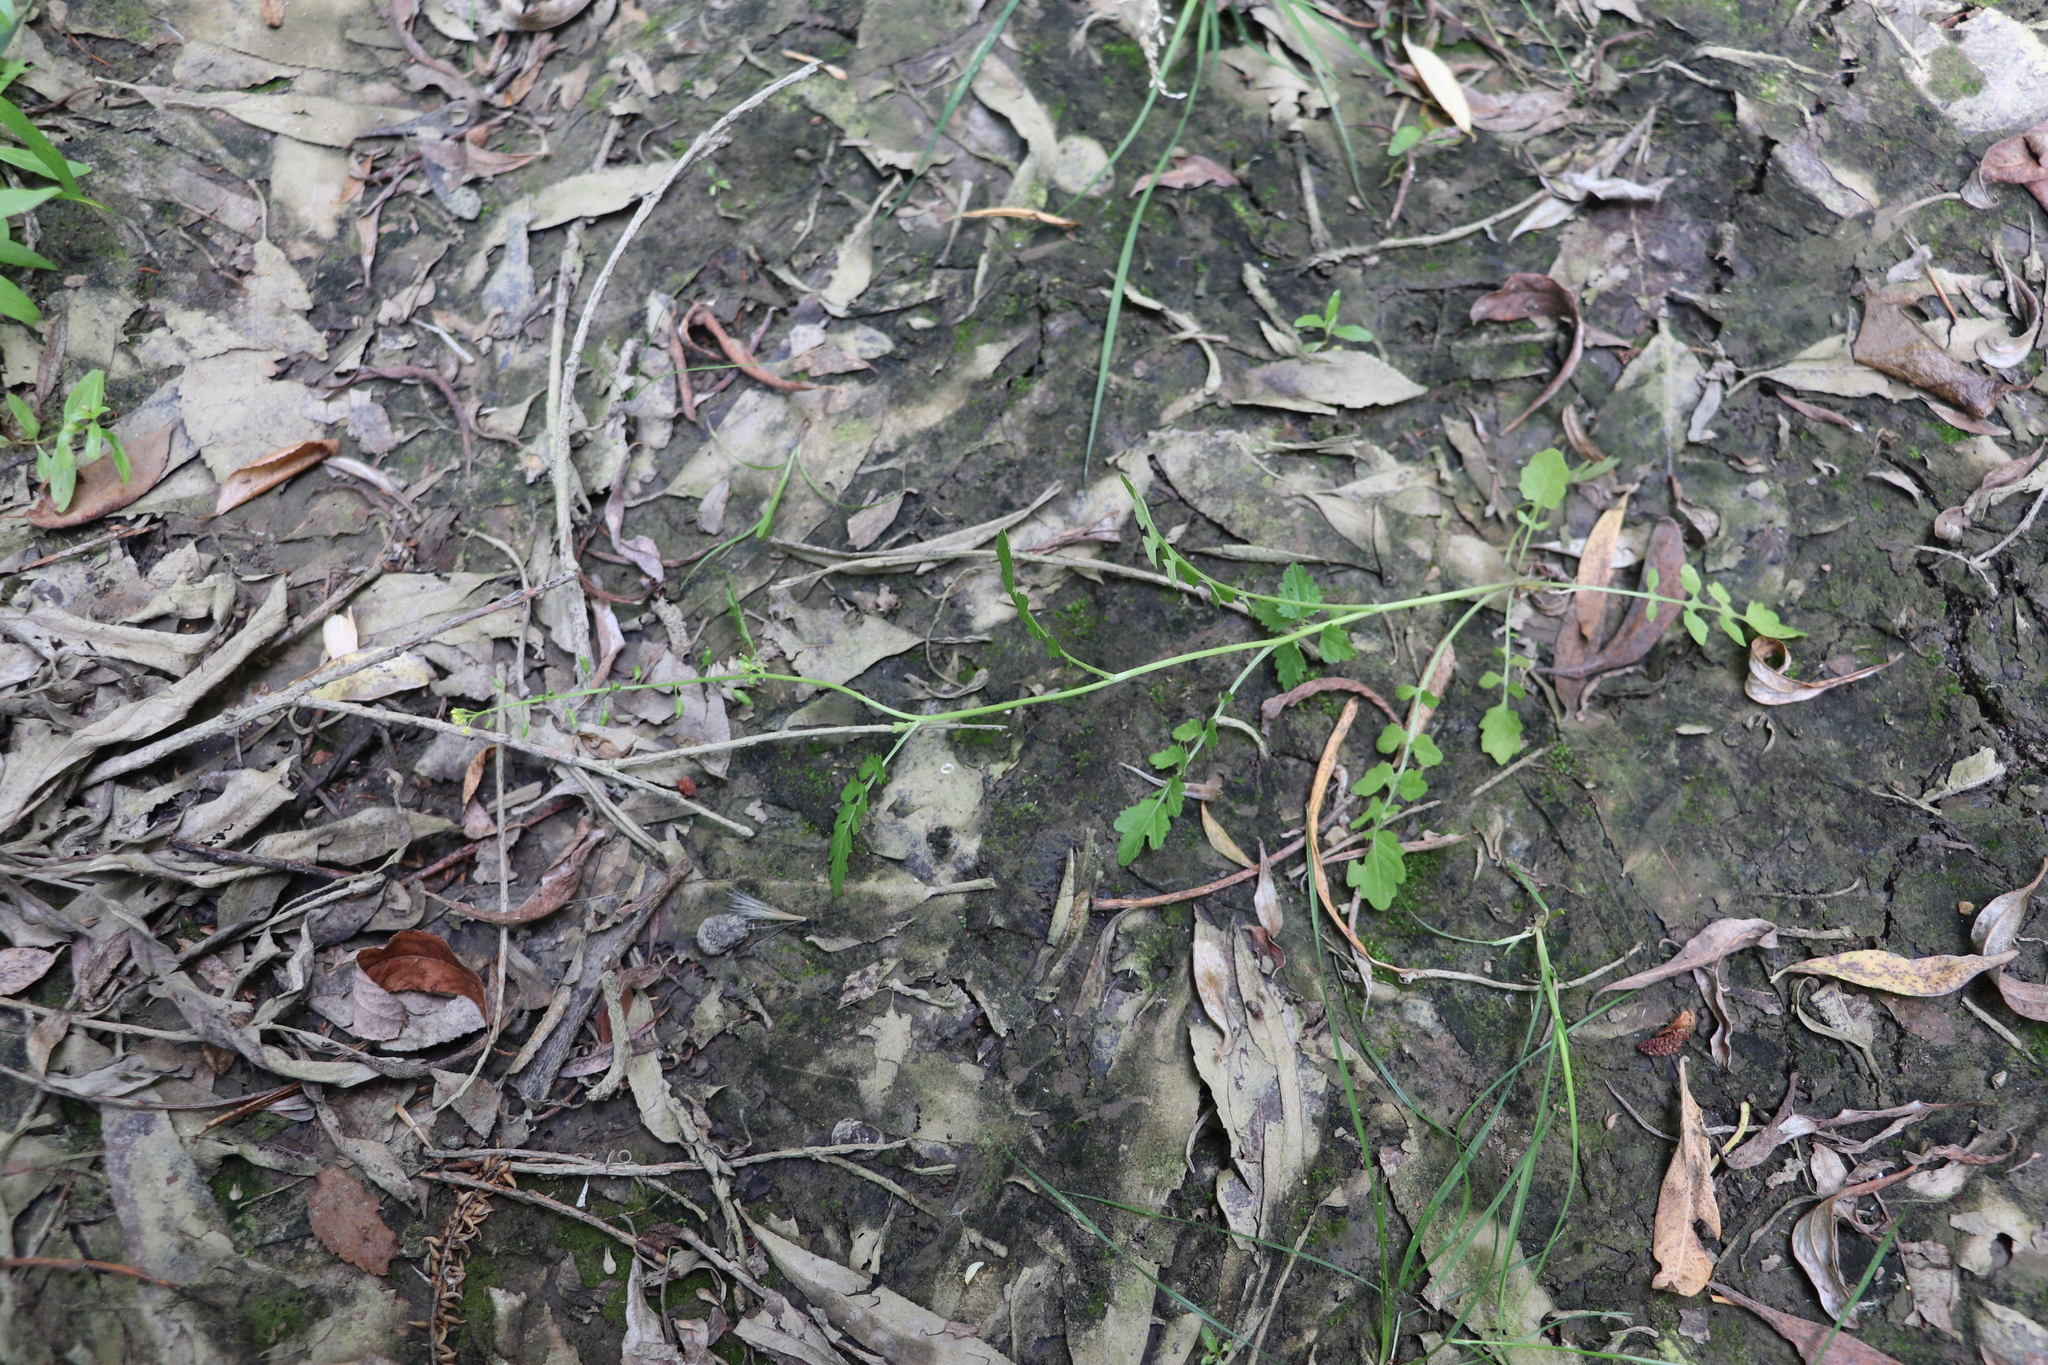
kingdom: Plantae
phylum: Tracheophyta
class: Magnoliopsida
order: Brassicales
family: Brassicaceae
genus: Rorippa
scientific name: Rorippa palustris
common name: Marsh yellow-cress
